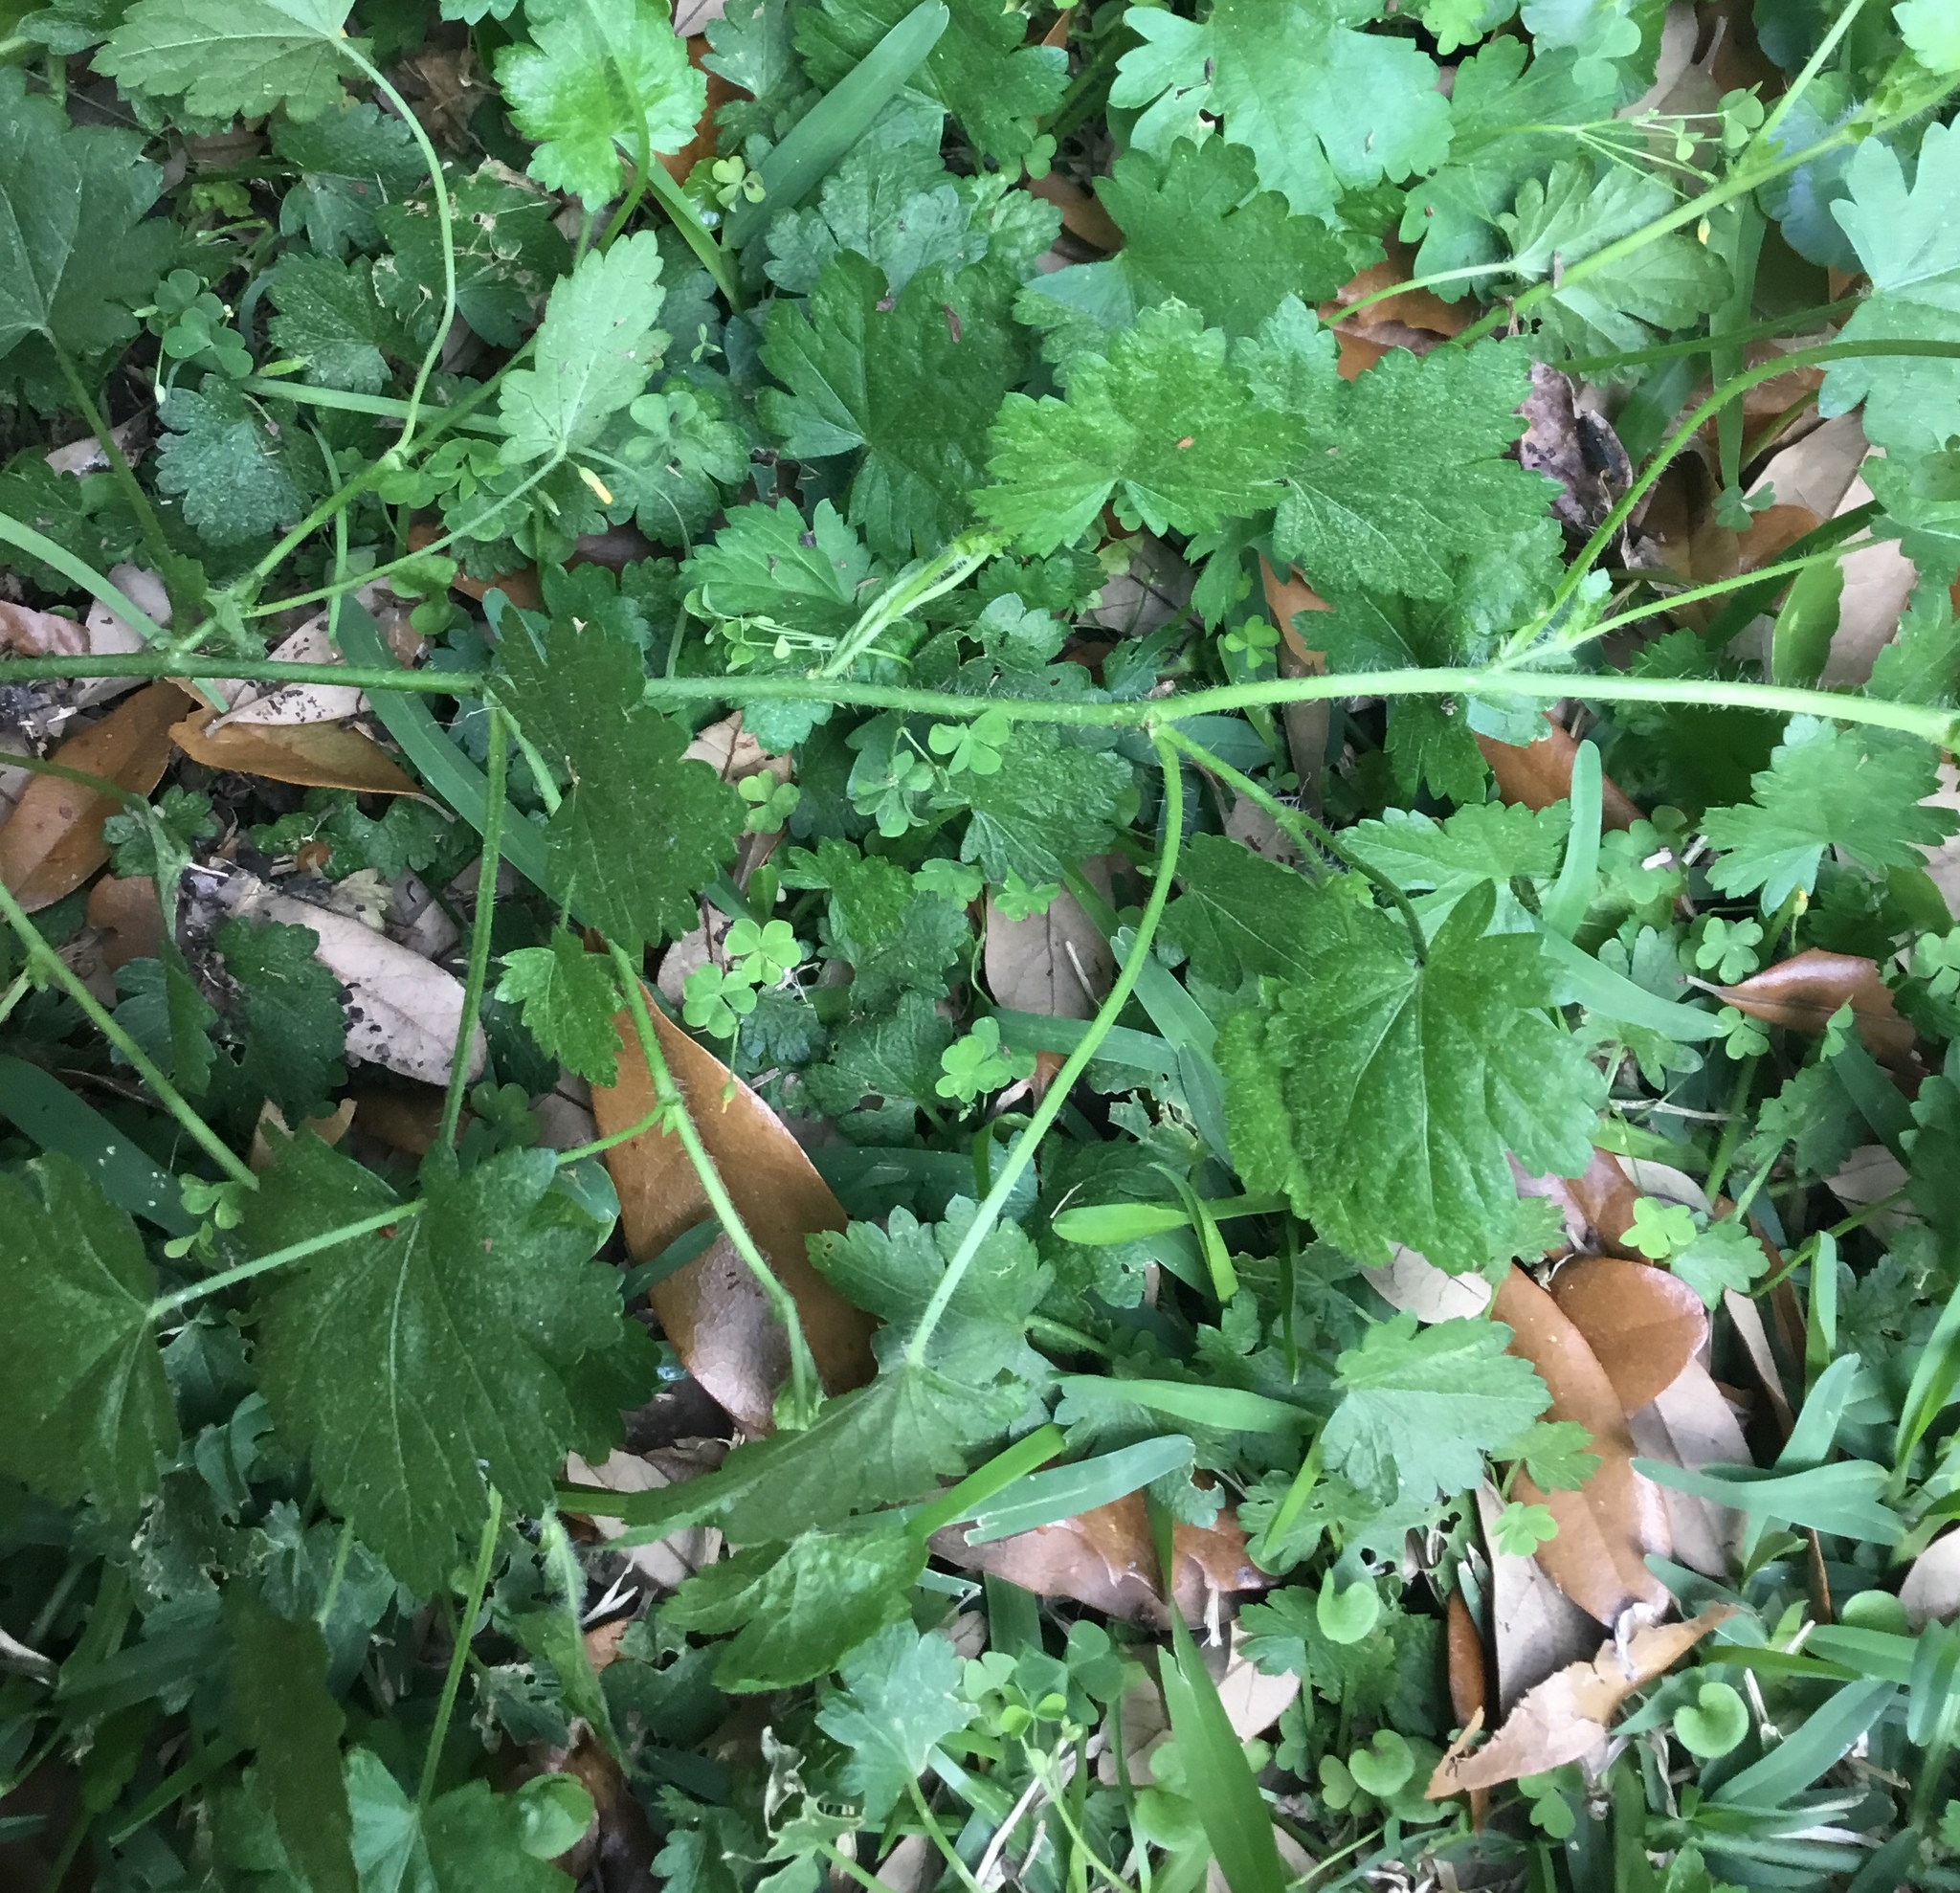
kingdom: Plantae
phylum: Tracheophyta
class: Magnoliopsida
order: Malvales
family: Malvaceae
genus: Modiola
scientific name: Modiola caroliniana
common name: Carolina bristlemallow
